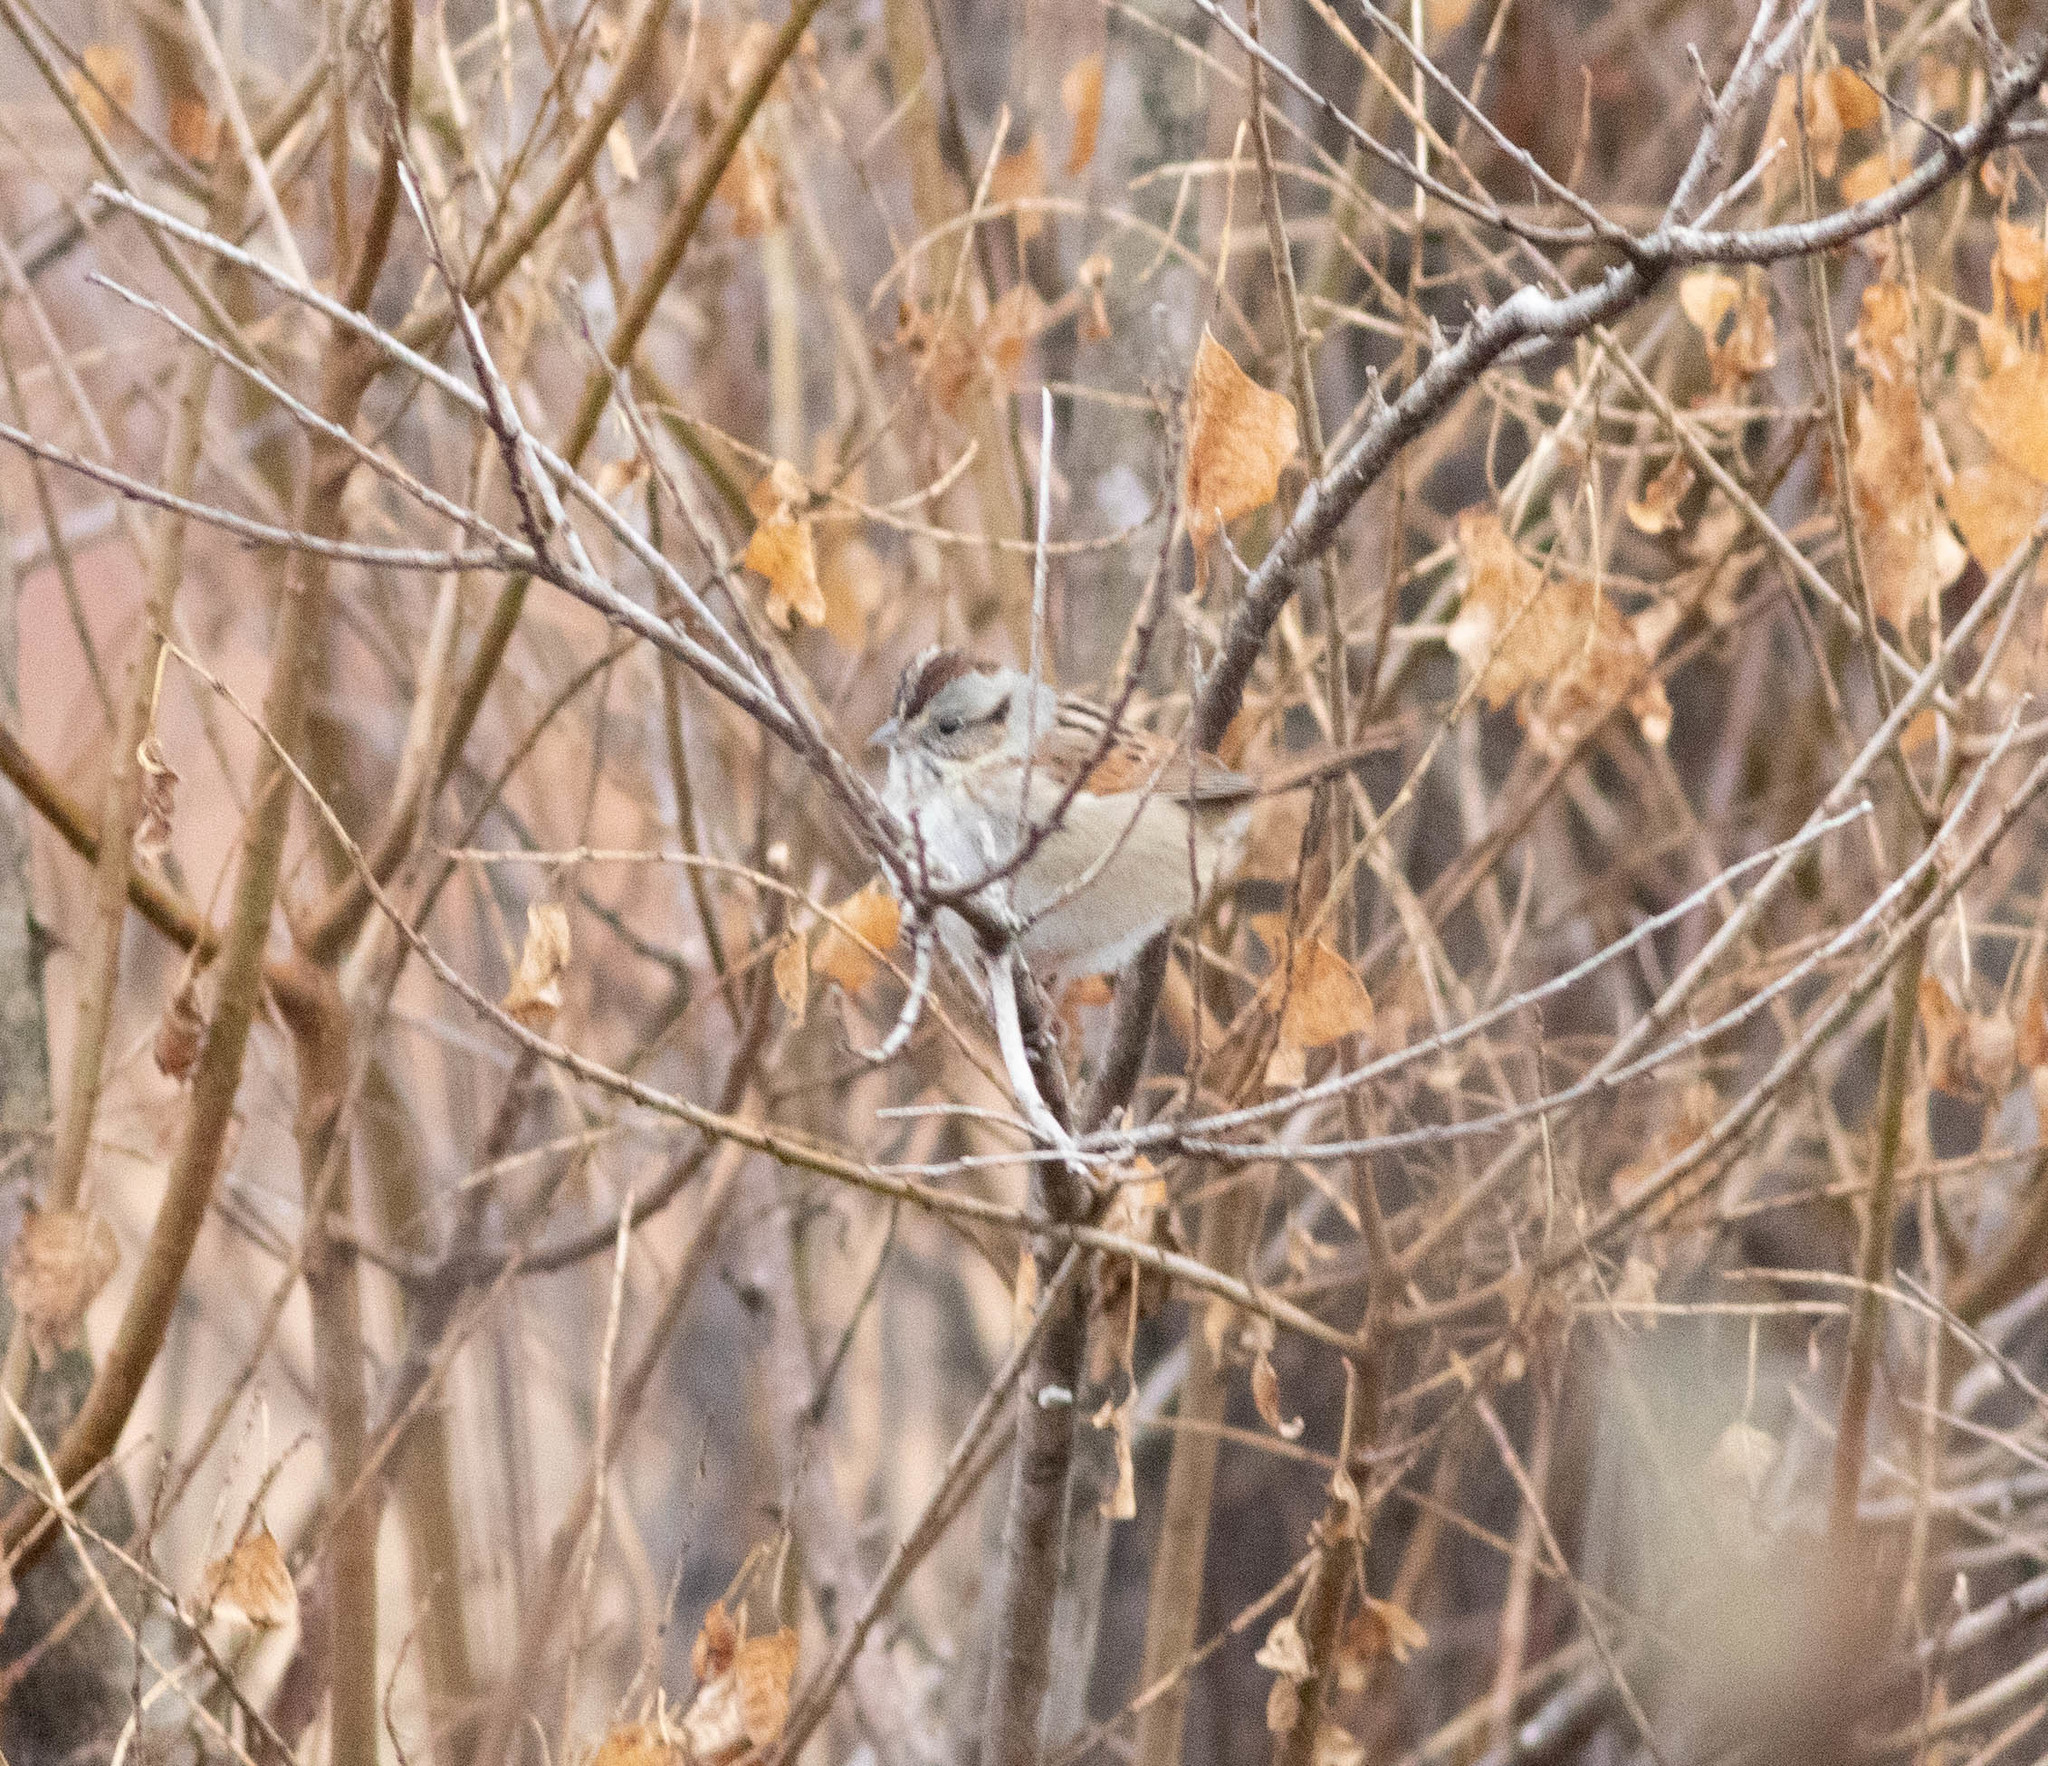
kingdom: Animalia
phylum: Chordata
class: Aves
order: Passeriformes
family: Passerellidae
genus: Melospiza
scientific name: Melospiza georgiana
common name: Swamp sparrow
